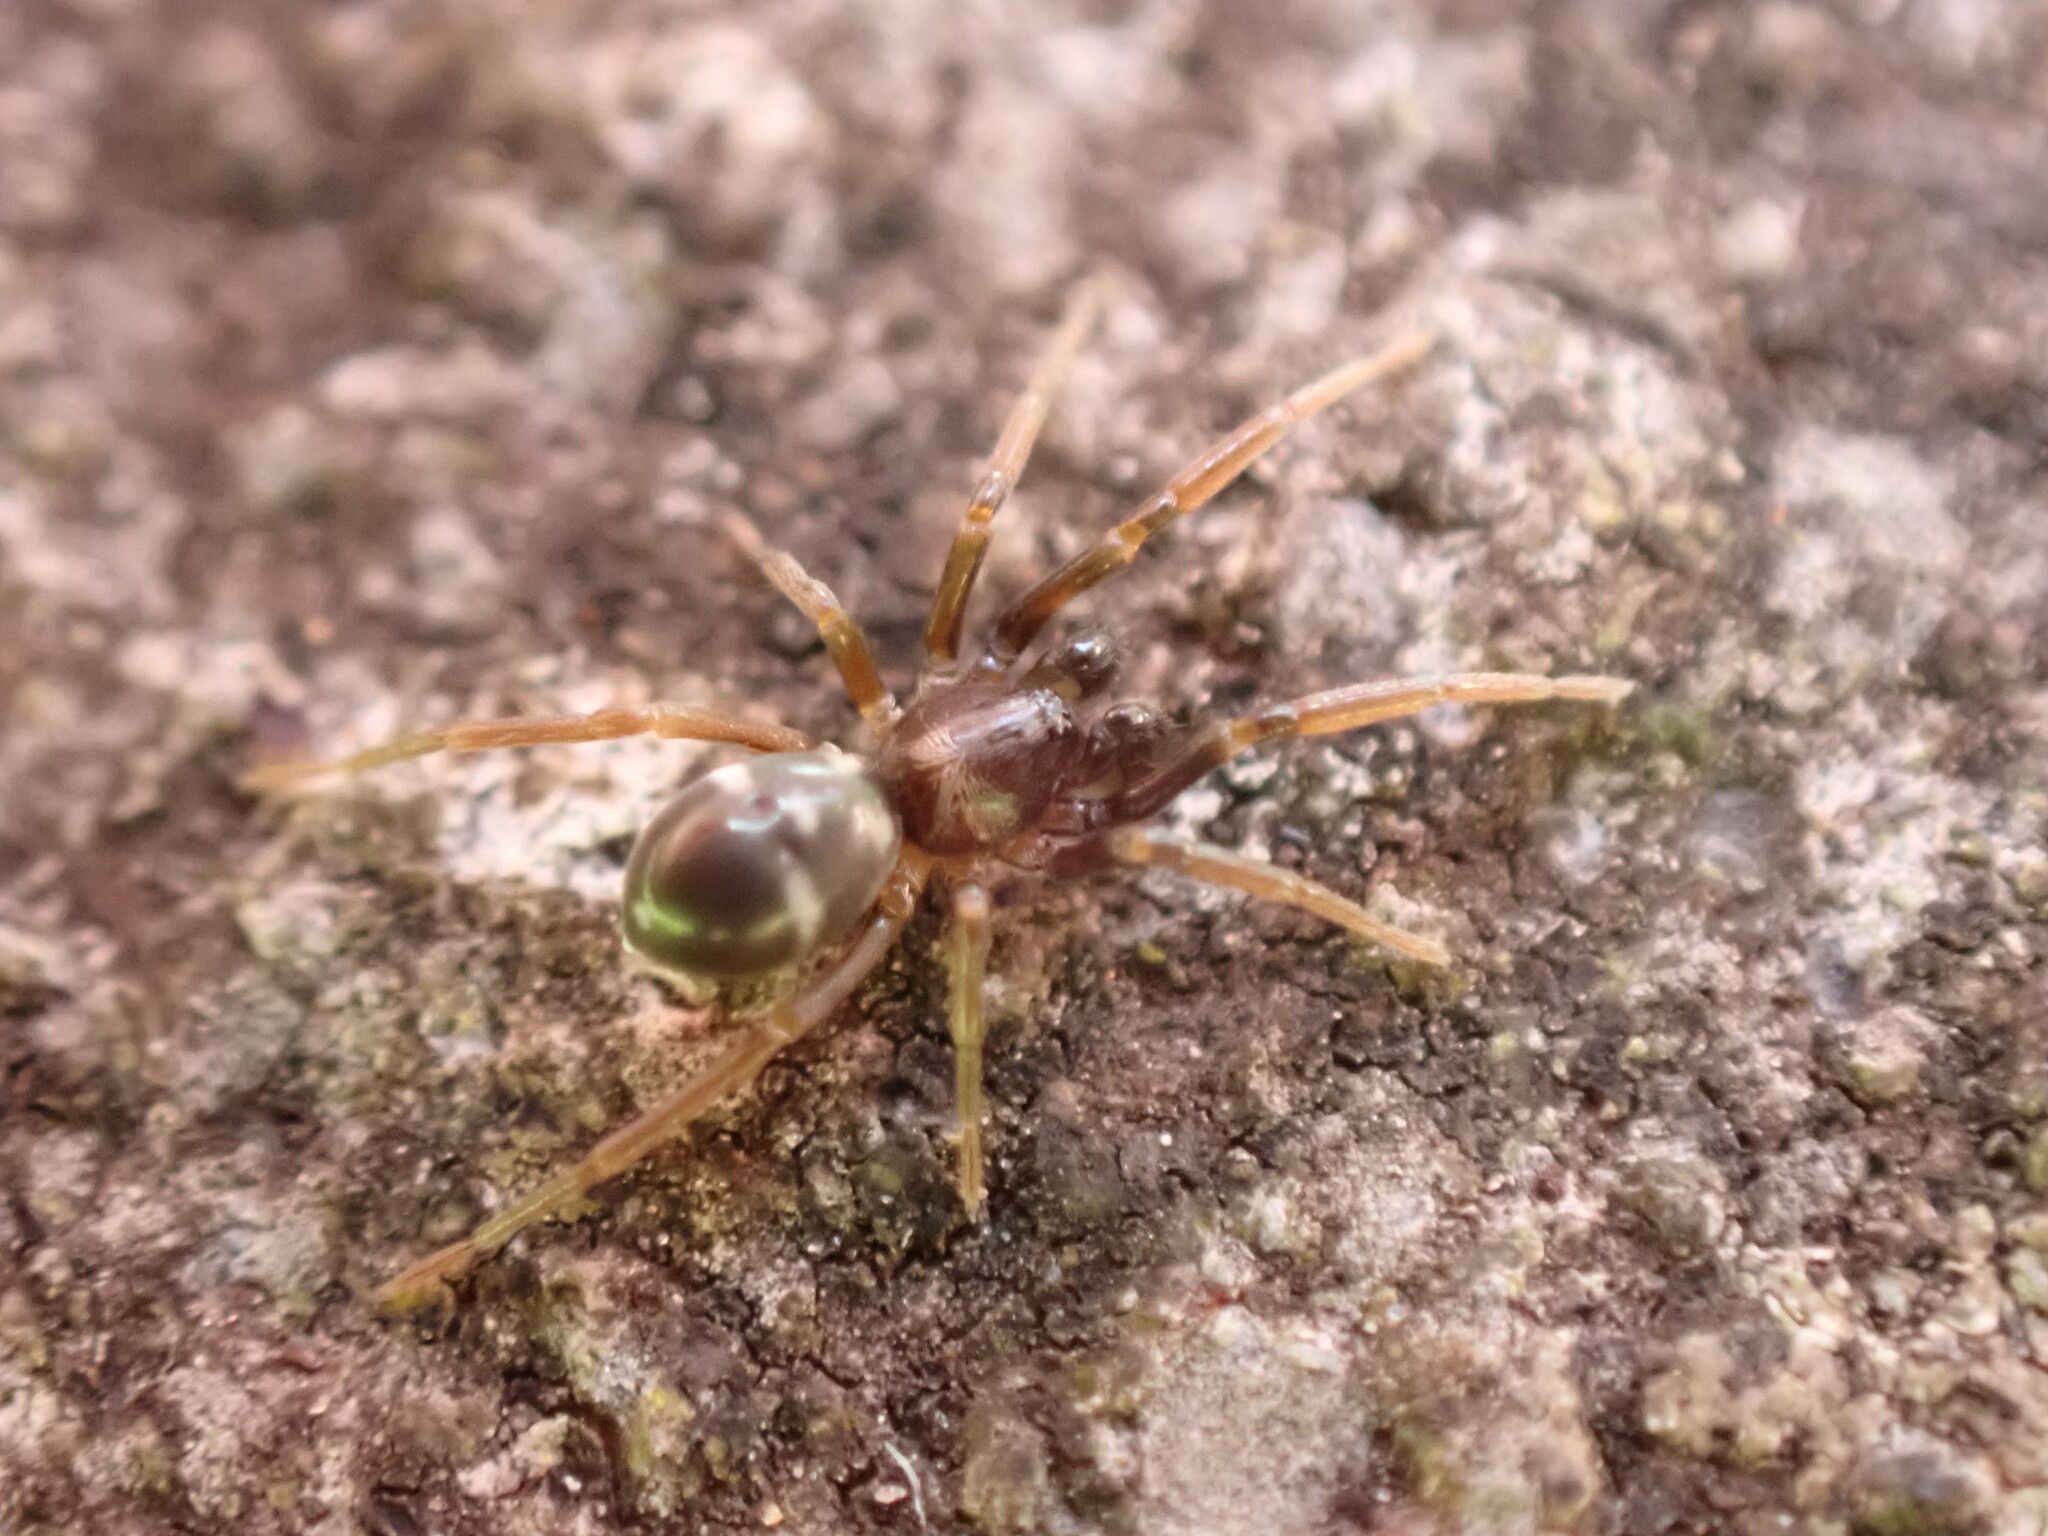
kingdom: Animalia
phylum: Arthropoda
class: Arachnida
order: Araneae
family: Phrurolithidae
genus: Phrurolithus
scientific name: Phrurolithus festivus
